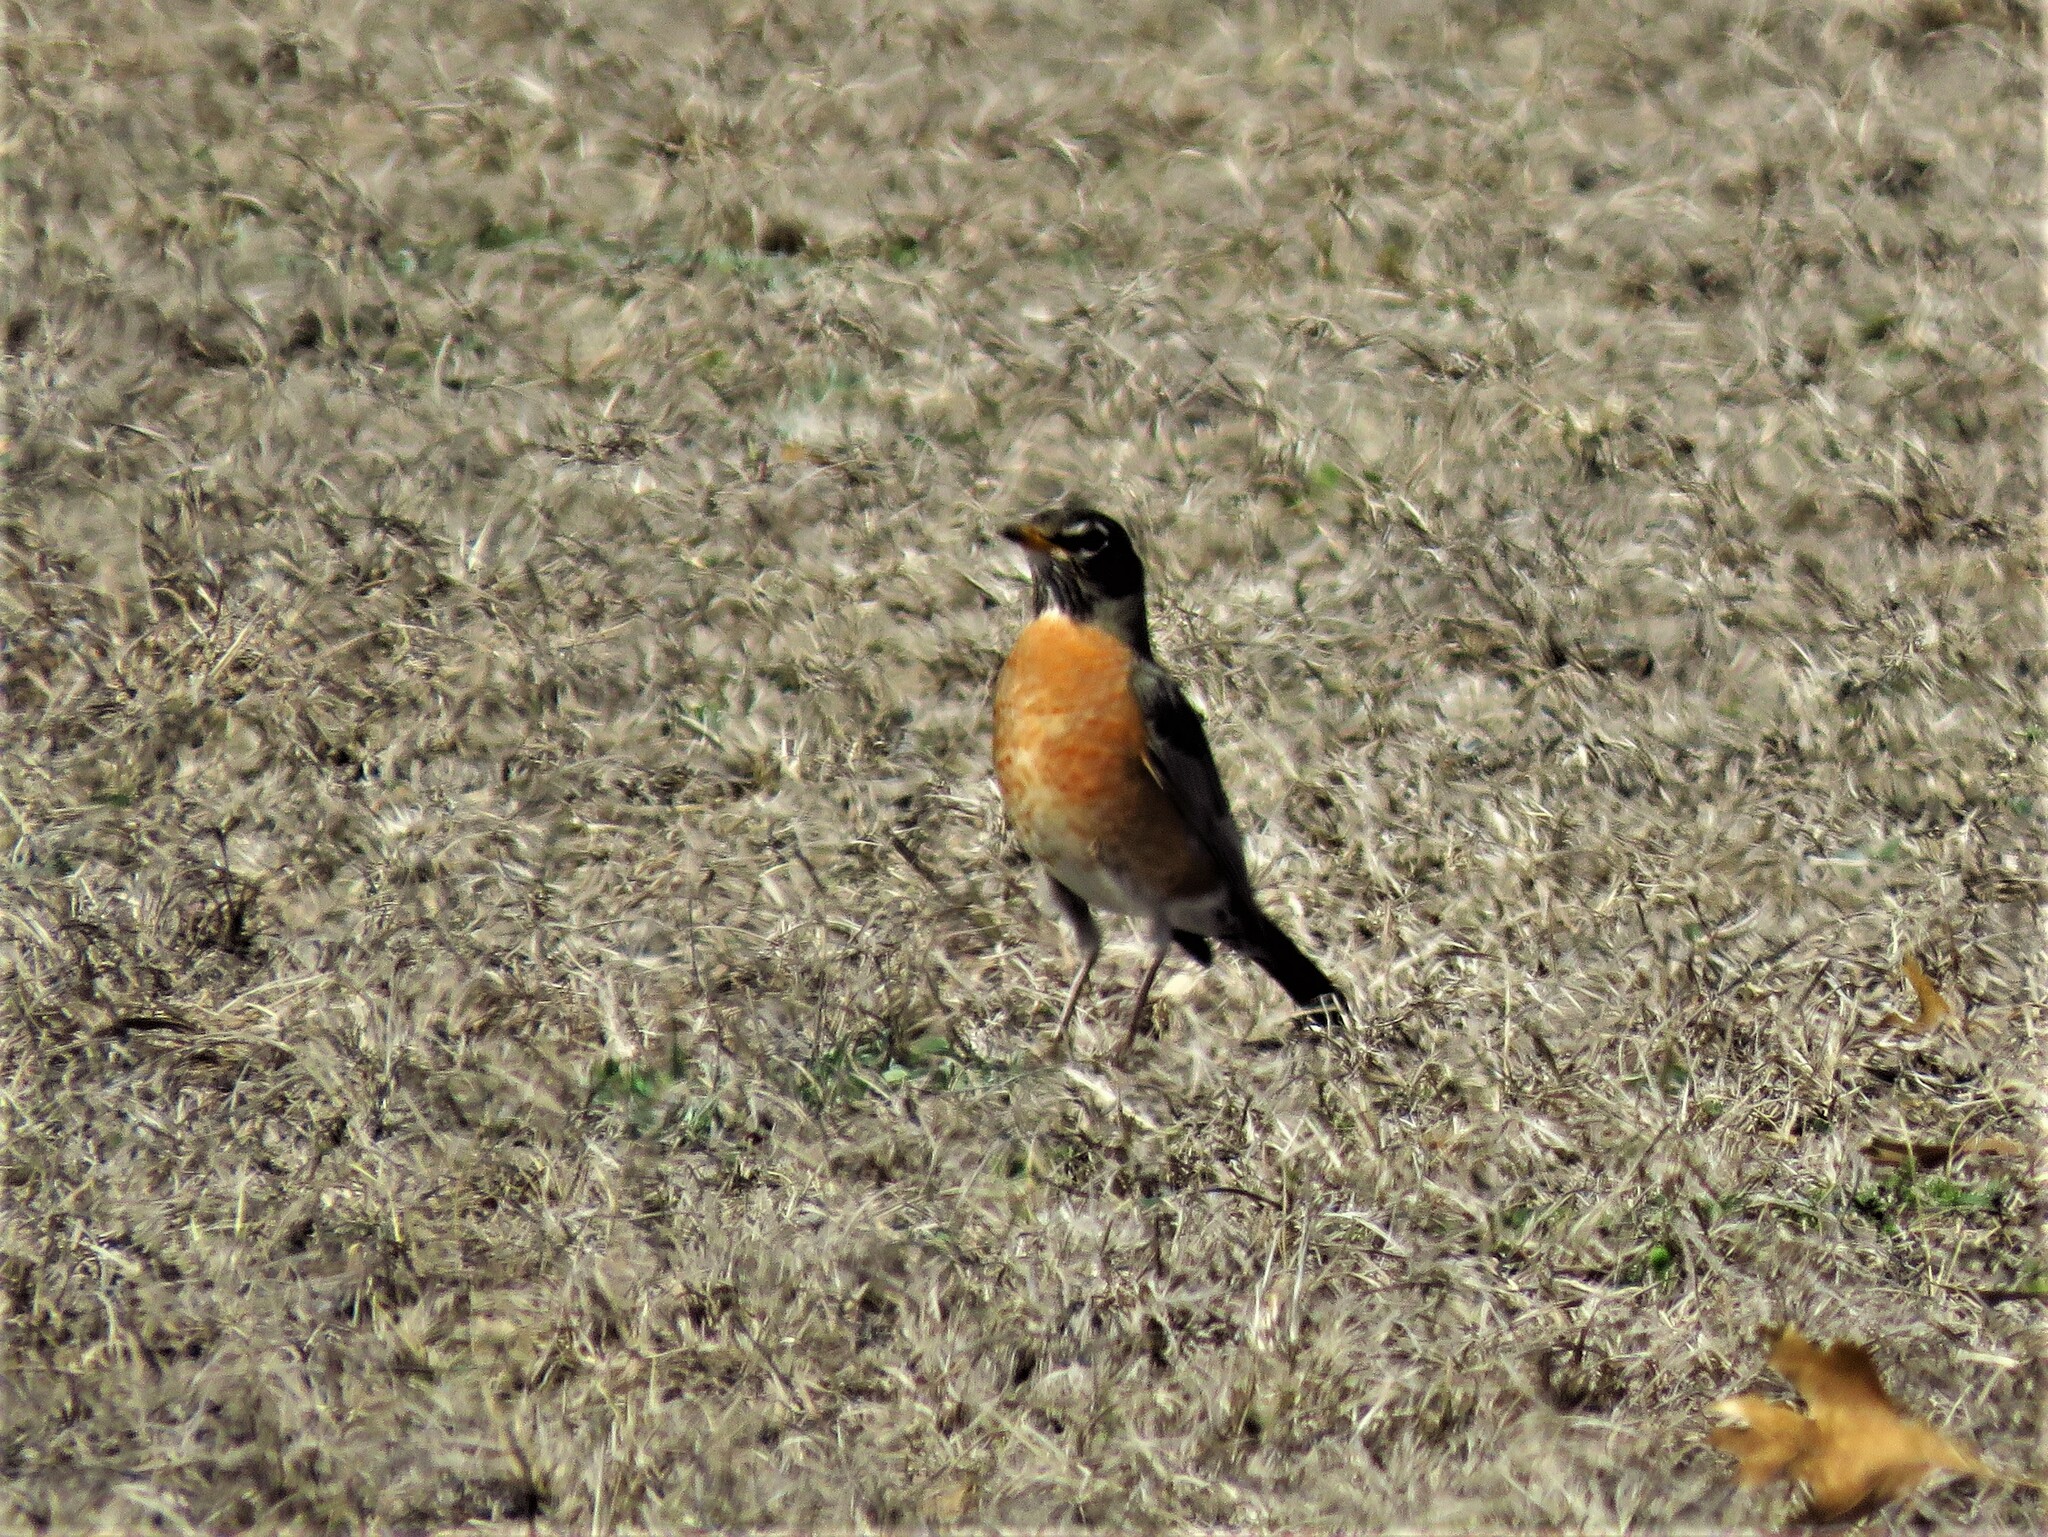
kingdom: Animalia
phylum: Chordata
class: Aves
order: Passeriformes
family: Turdidae
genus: Turdus
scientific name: Turdus migratorius
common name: American robin
